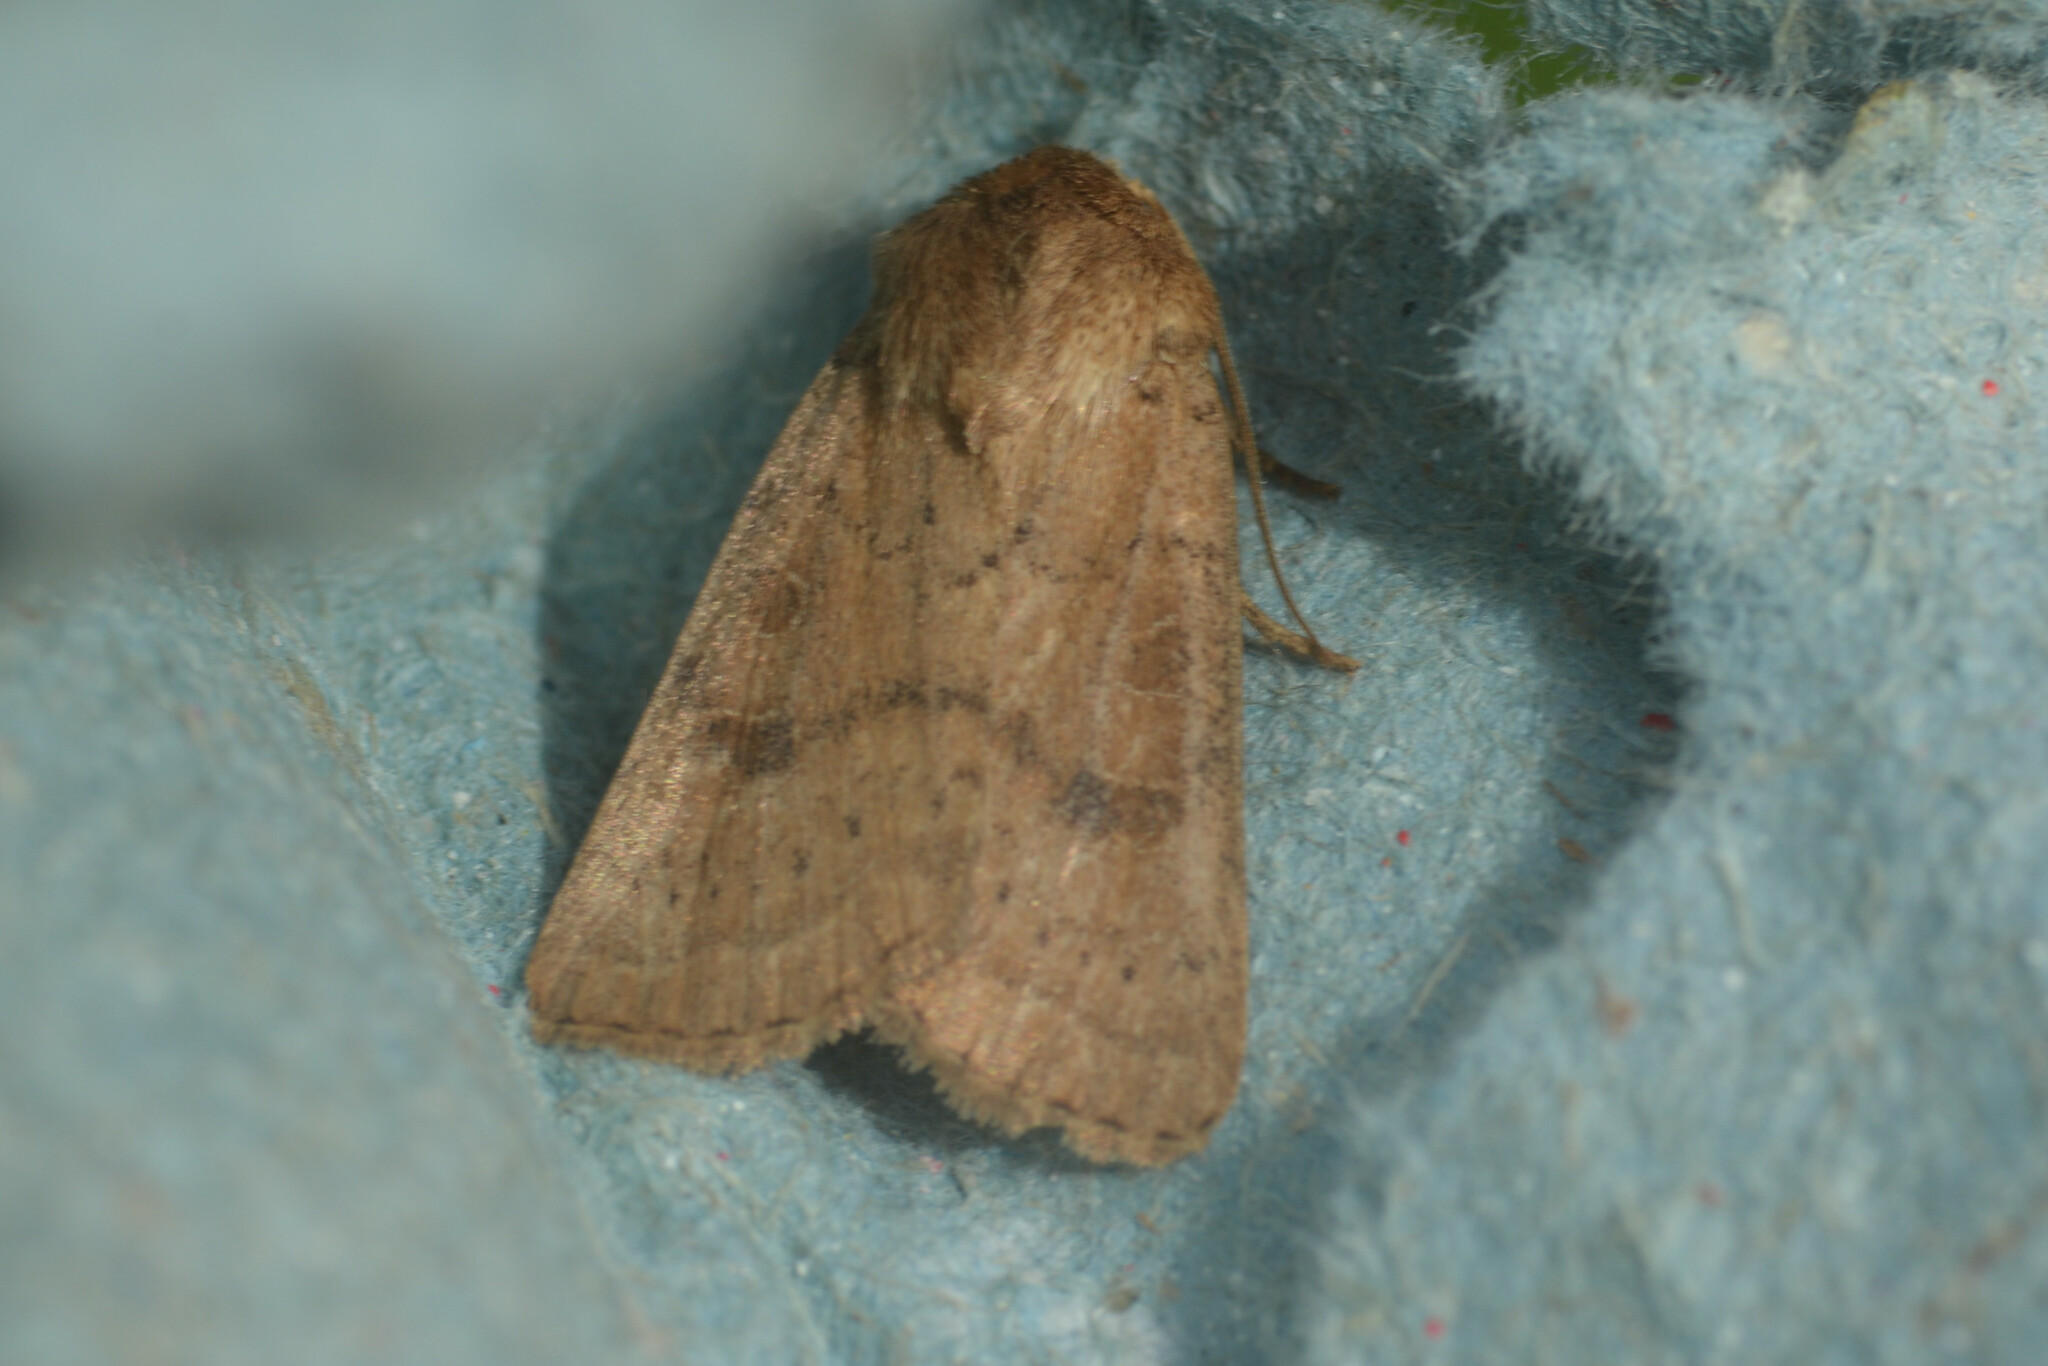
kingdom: Animalia
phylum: Arthropoda
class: Insecta
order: Lepidoptera
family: Noctuidae
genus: Hoplodrina
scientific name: Hoplodrina octogenaria
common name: Uncertain
